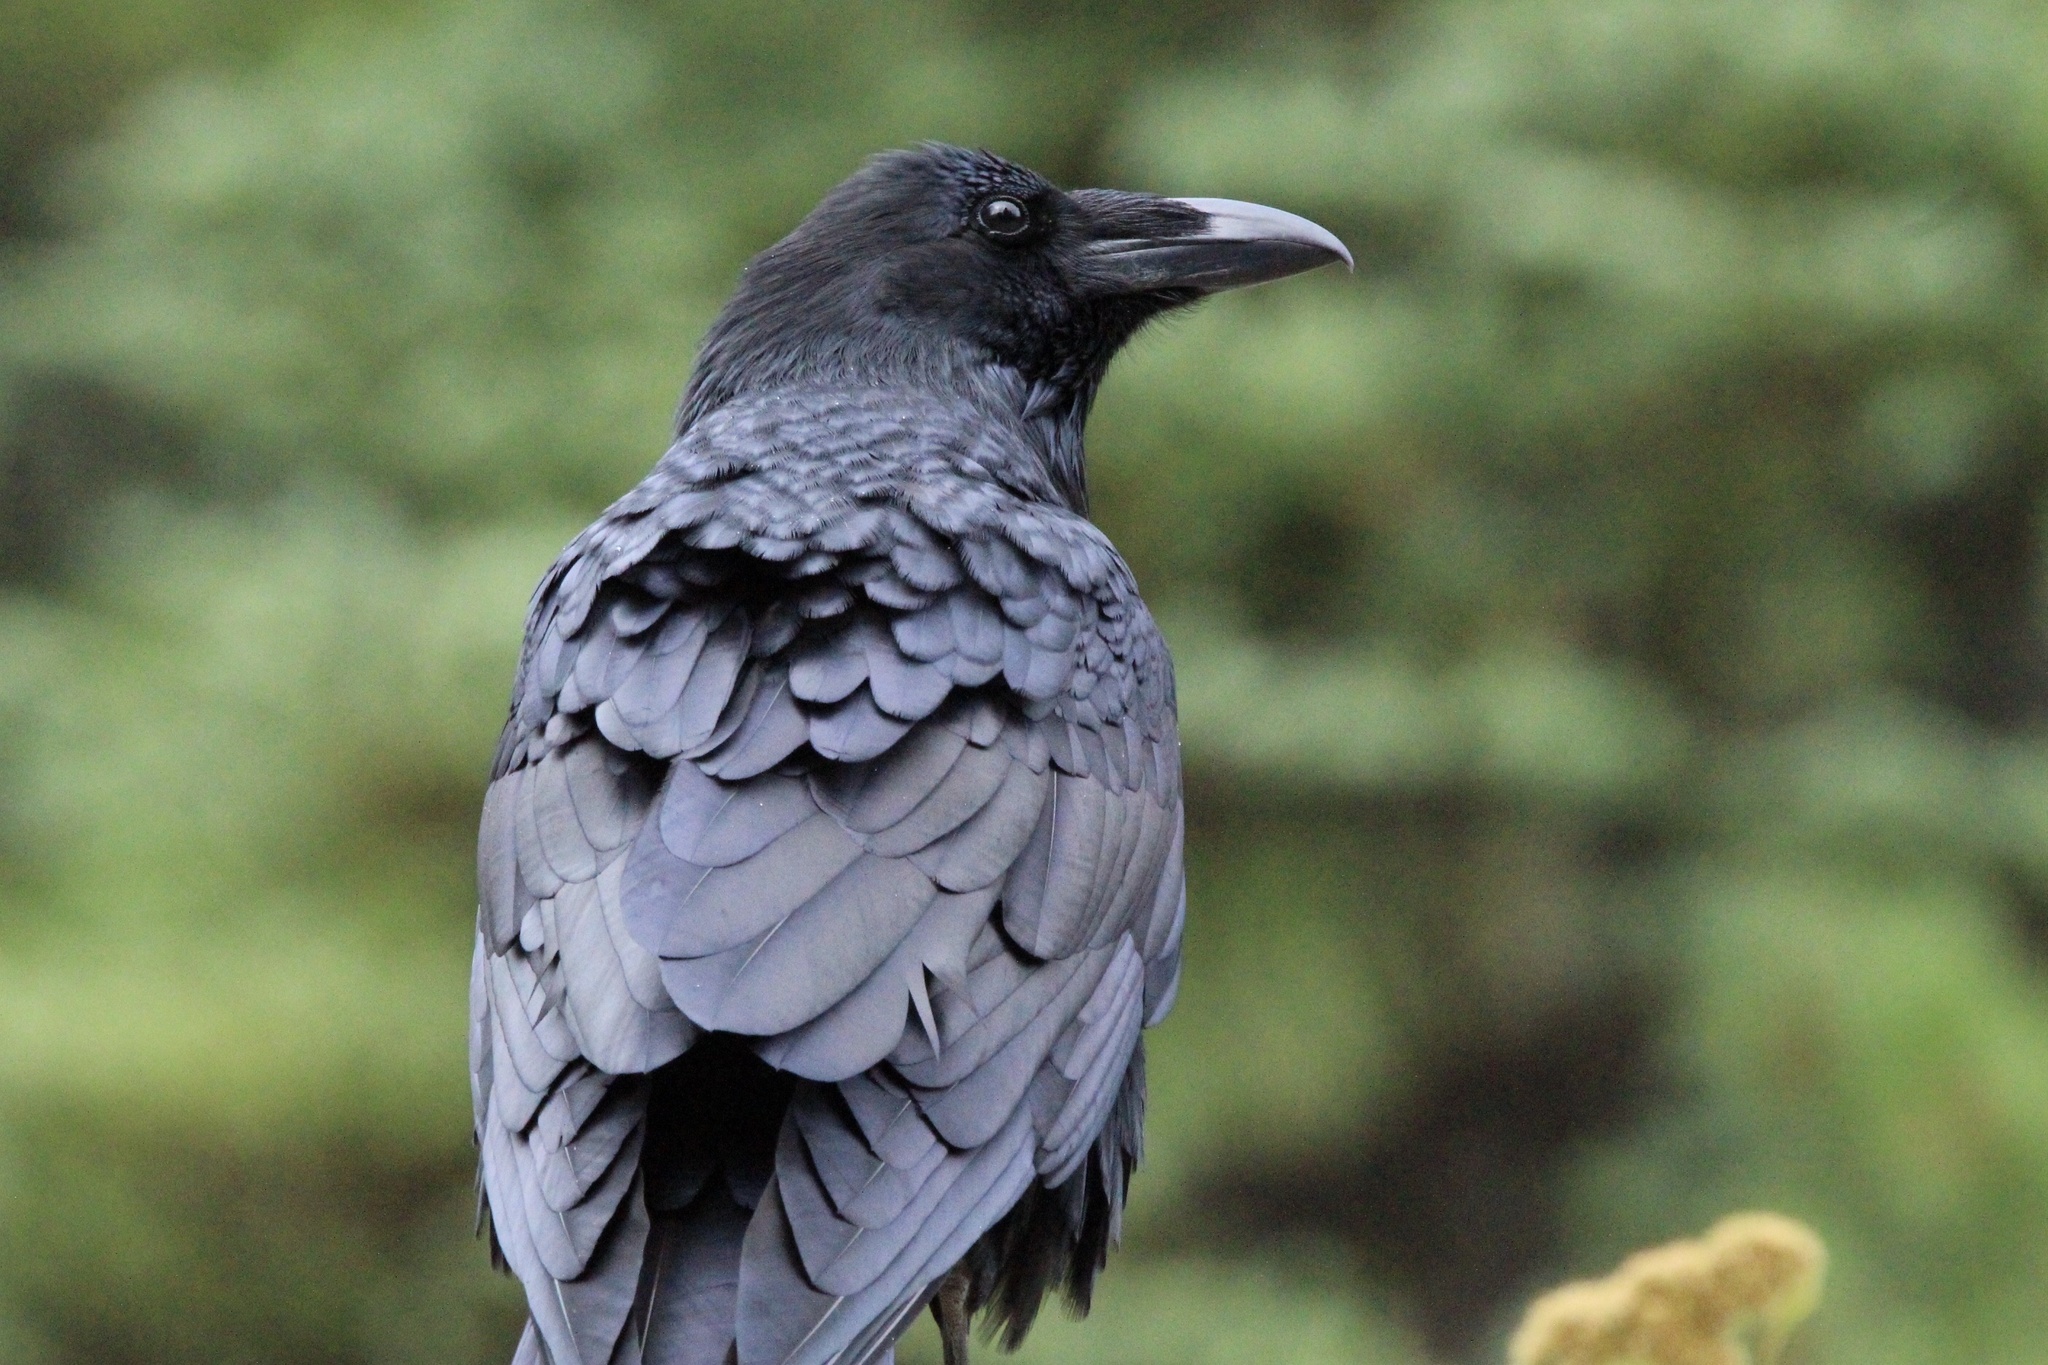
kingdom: Animalia
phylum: Chordata
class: Aves
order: Passeriformes
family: Corvidae
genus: Corvus
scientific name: Corvus corax
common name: Common raven
